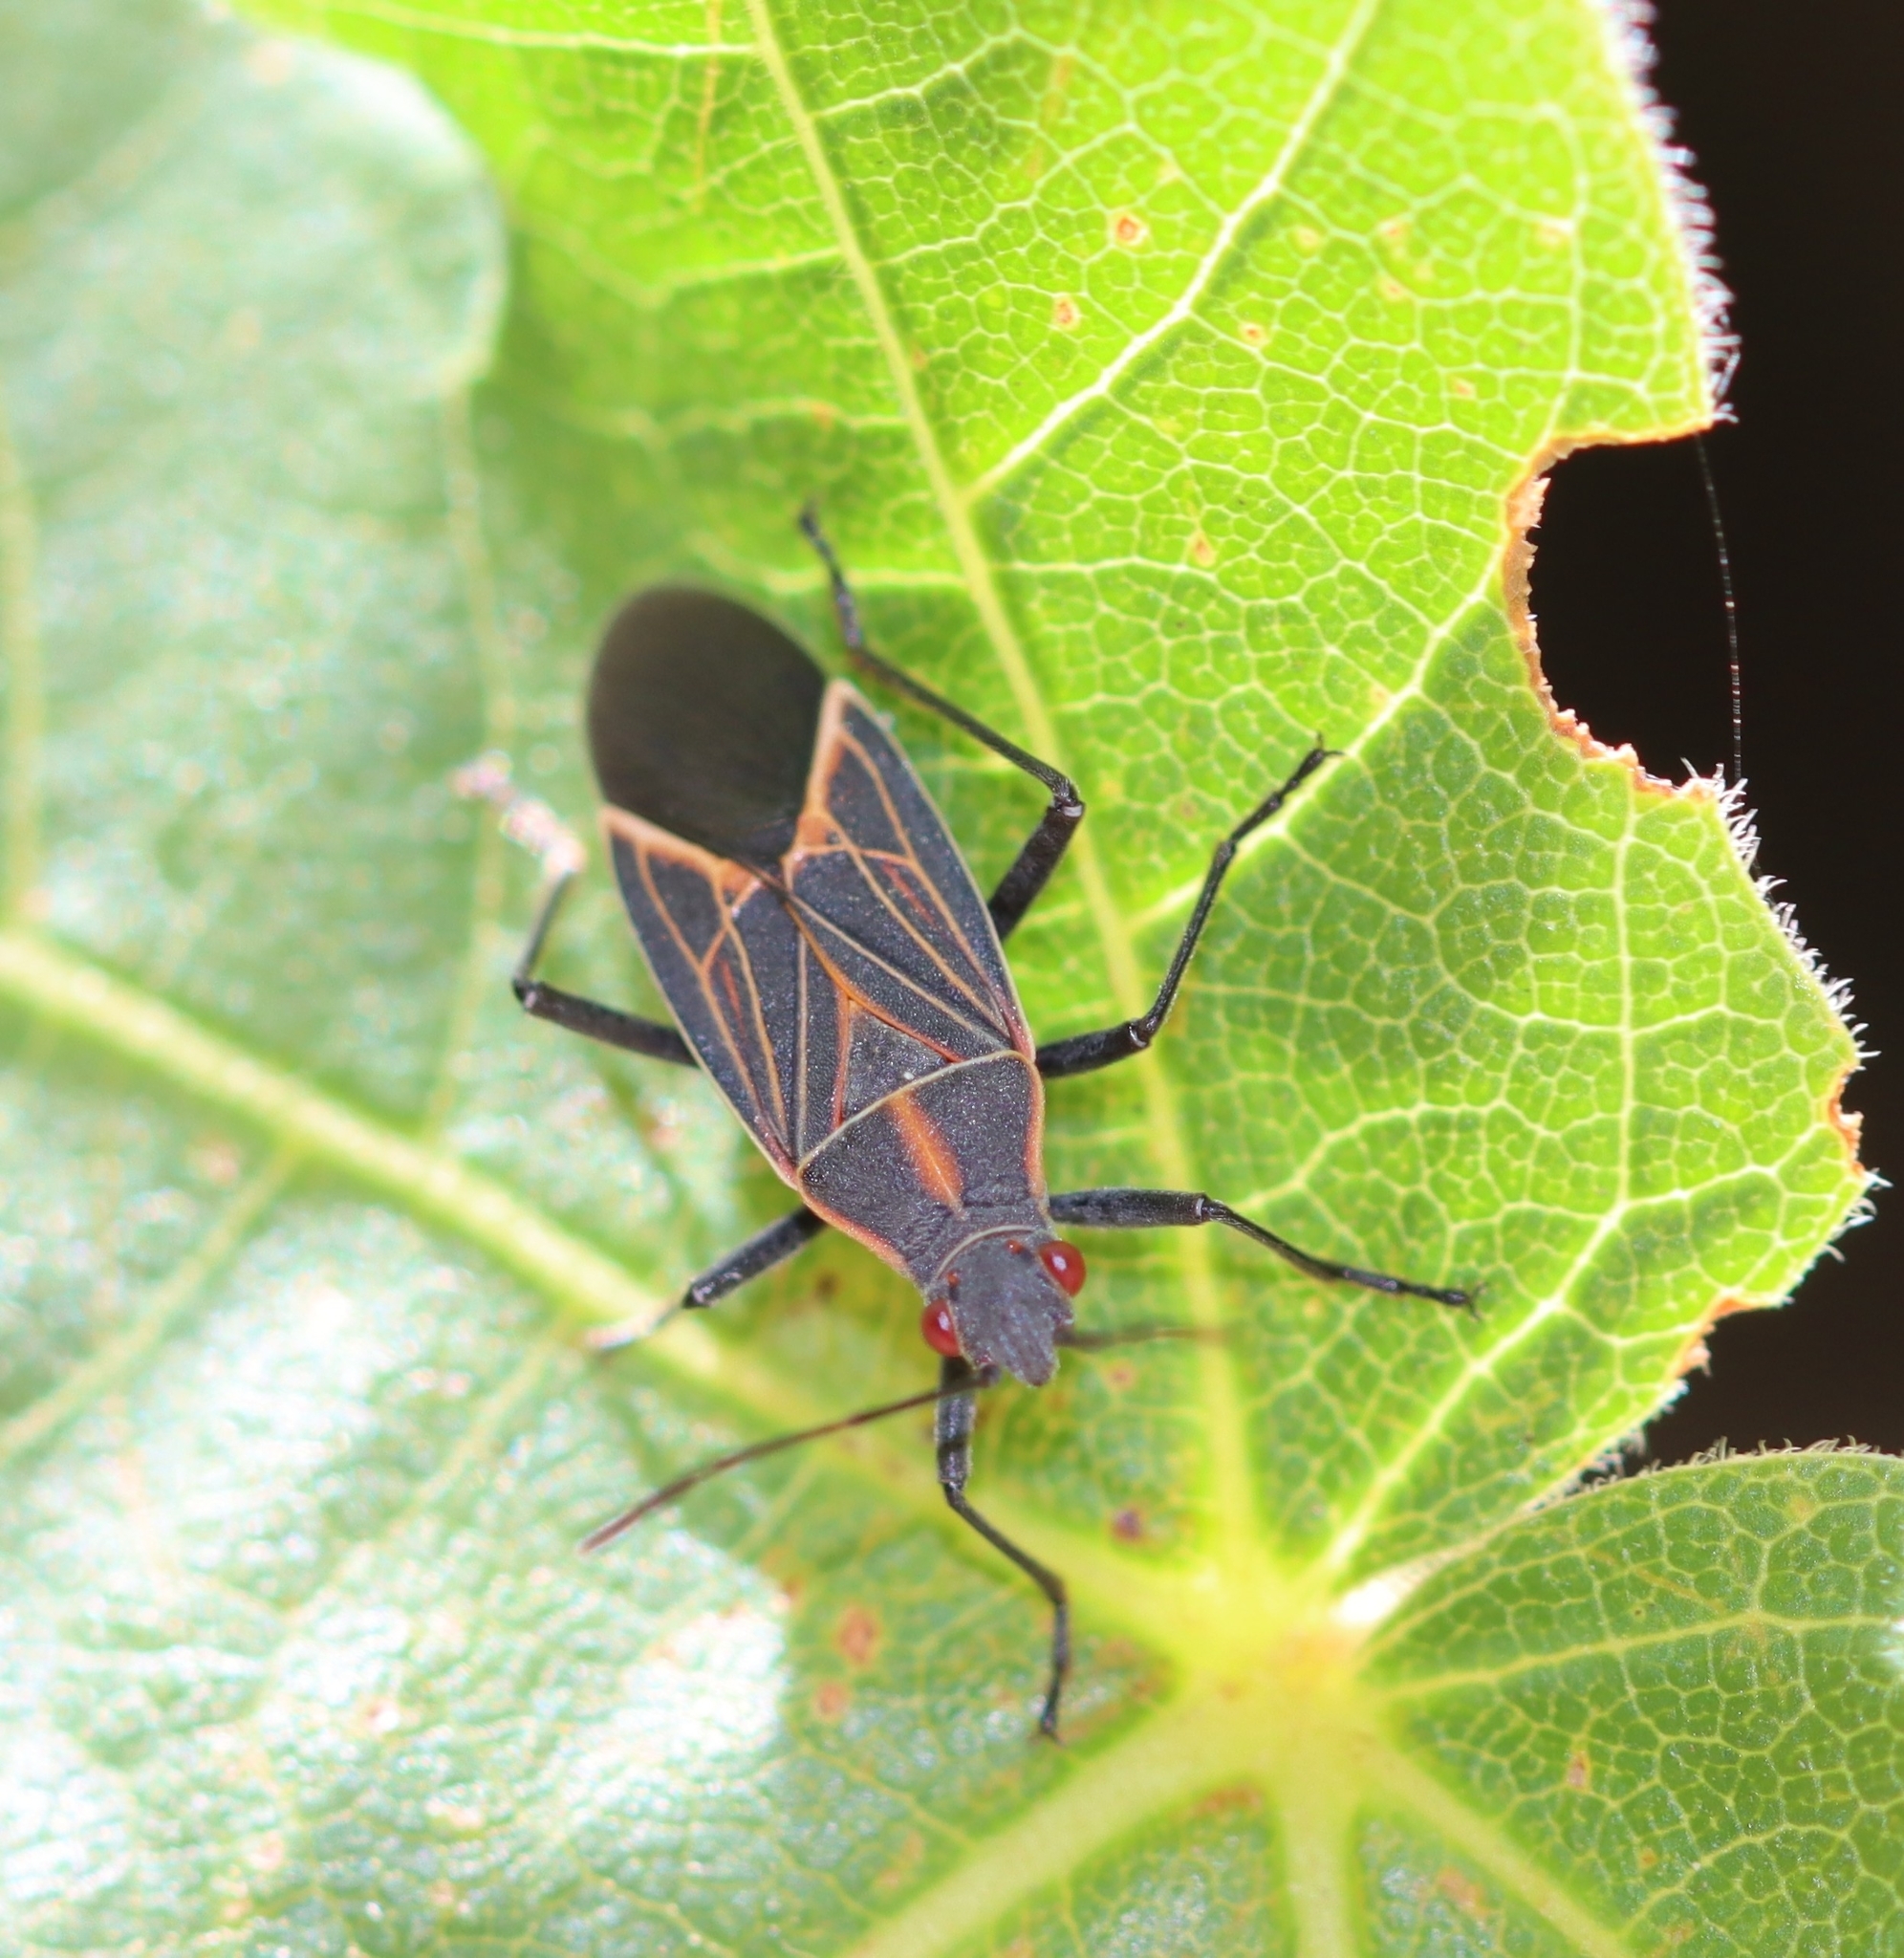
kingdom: Animalia
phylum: Arthropoda
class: Insecta
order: Hemiptera
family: Rhopalidae
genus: Boisea
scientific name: Boisea rubrolineata
